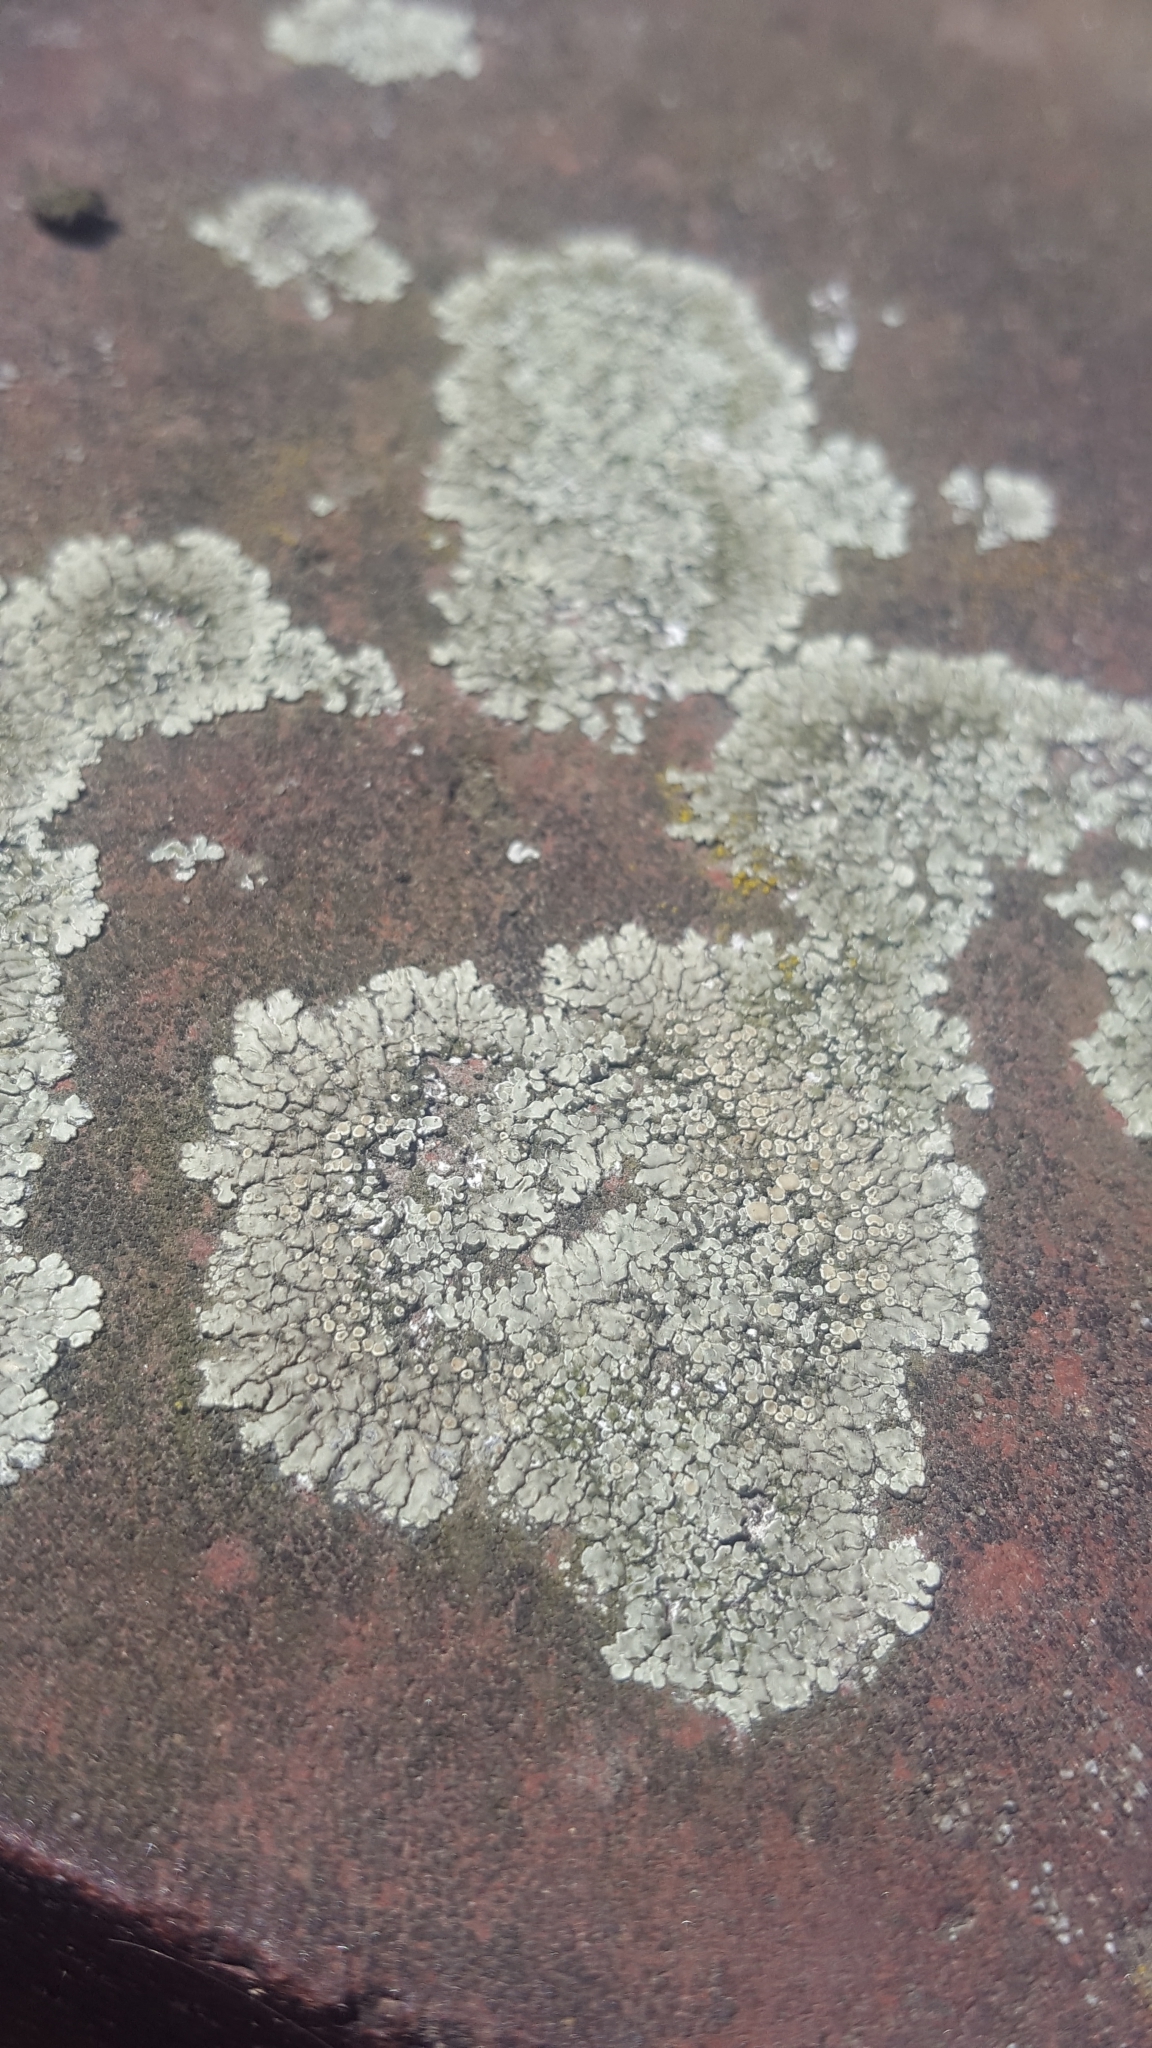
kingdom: Fungi
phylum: Ascomycota
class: Lecanoromycetes
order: Lecanorales
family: Lecanoraceae
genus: Protoparmeliopsis
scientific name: Protoparmeliopsis muralis
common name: Stonewall rim lichen
